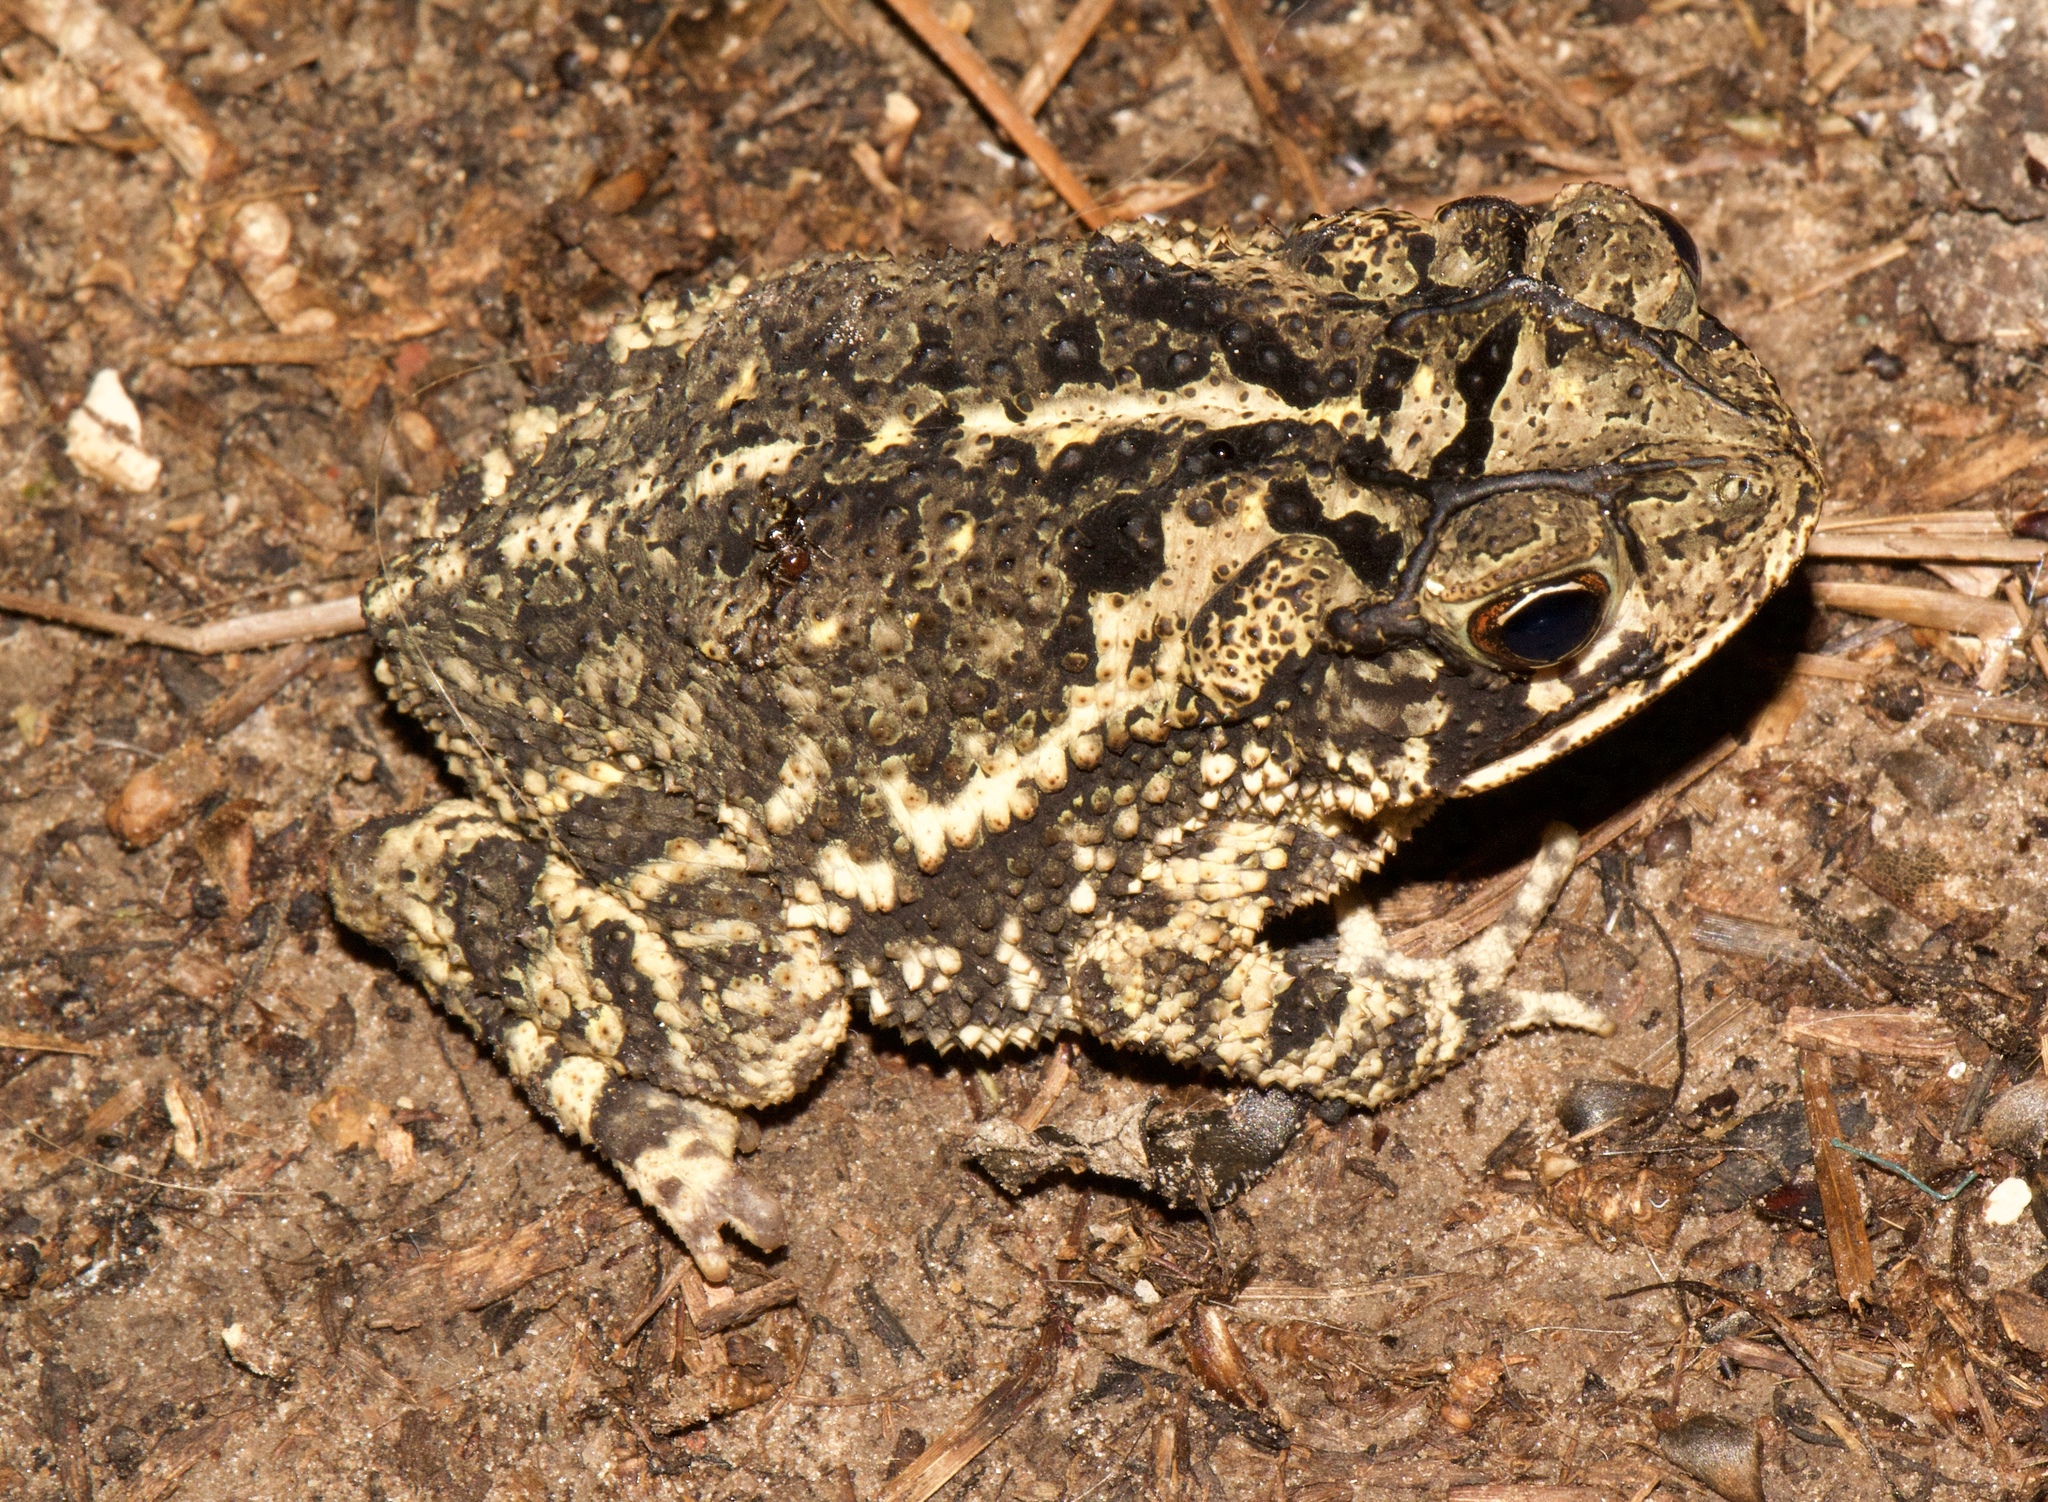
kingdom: Animalia
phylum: Chordata
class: Amphibia
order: Anura
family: Bufonidae
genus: Incilius
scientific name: Incilius nebulifer
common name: Gulf coast toad
